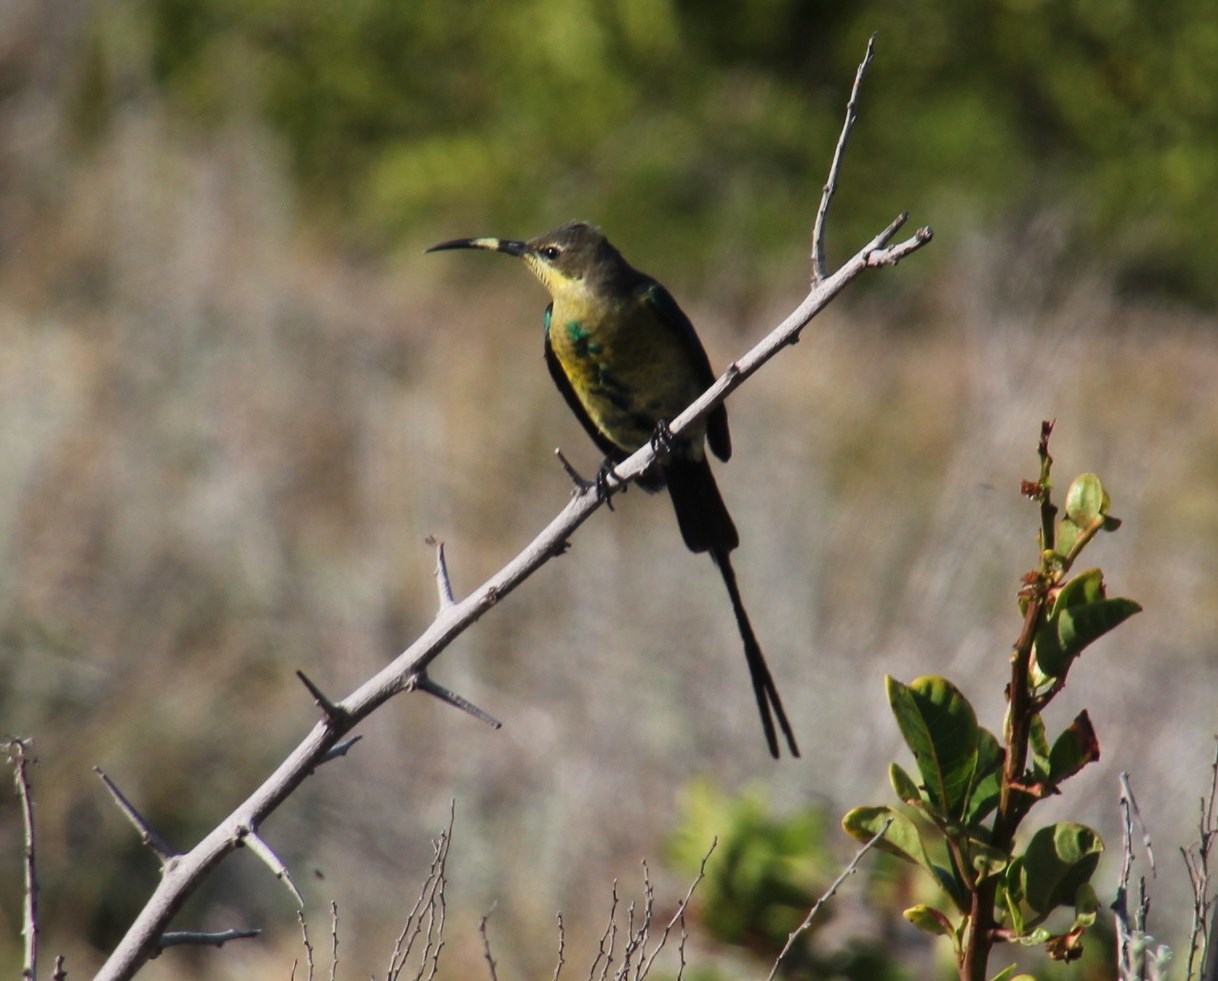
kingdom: Animalia
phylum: Chordata
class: Aves
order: Passeriformes
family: Nectariniidae
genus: Nectarinia
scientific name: Nectarinia famosa
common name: Malachite sunbird
